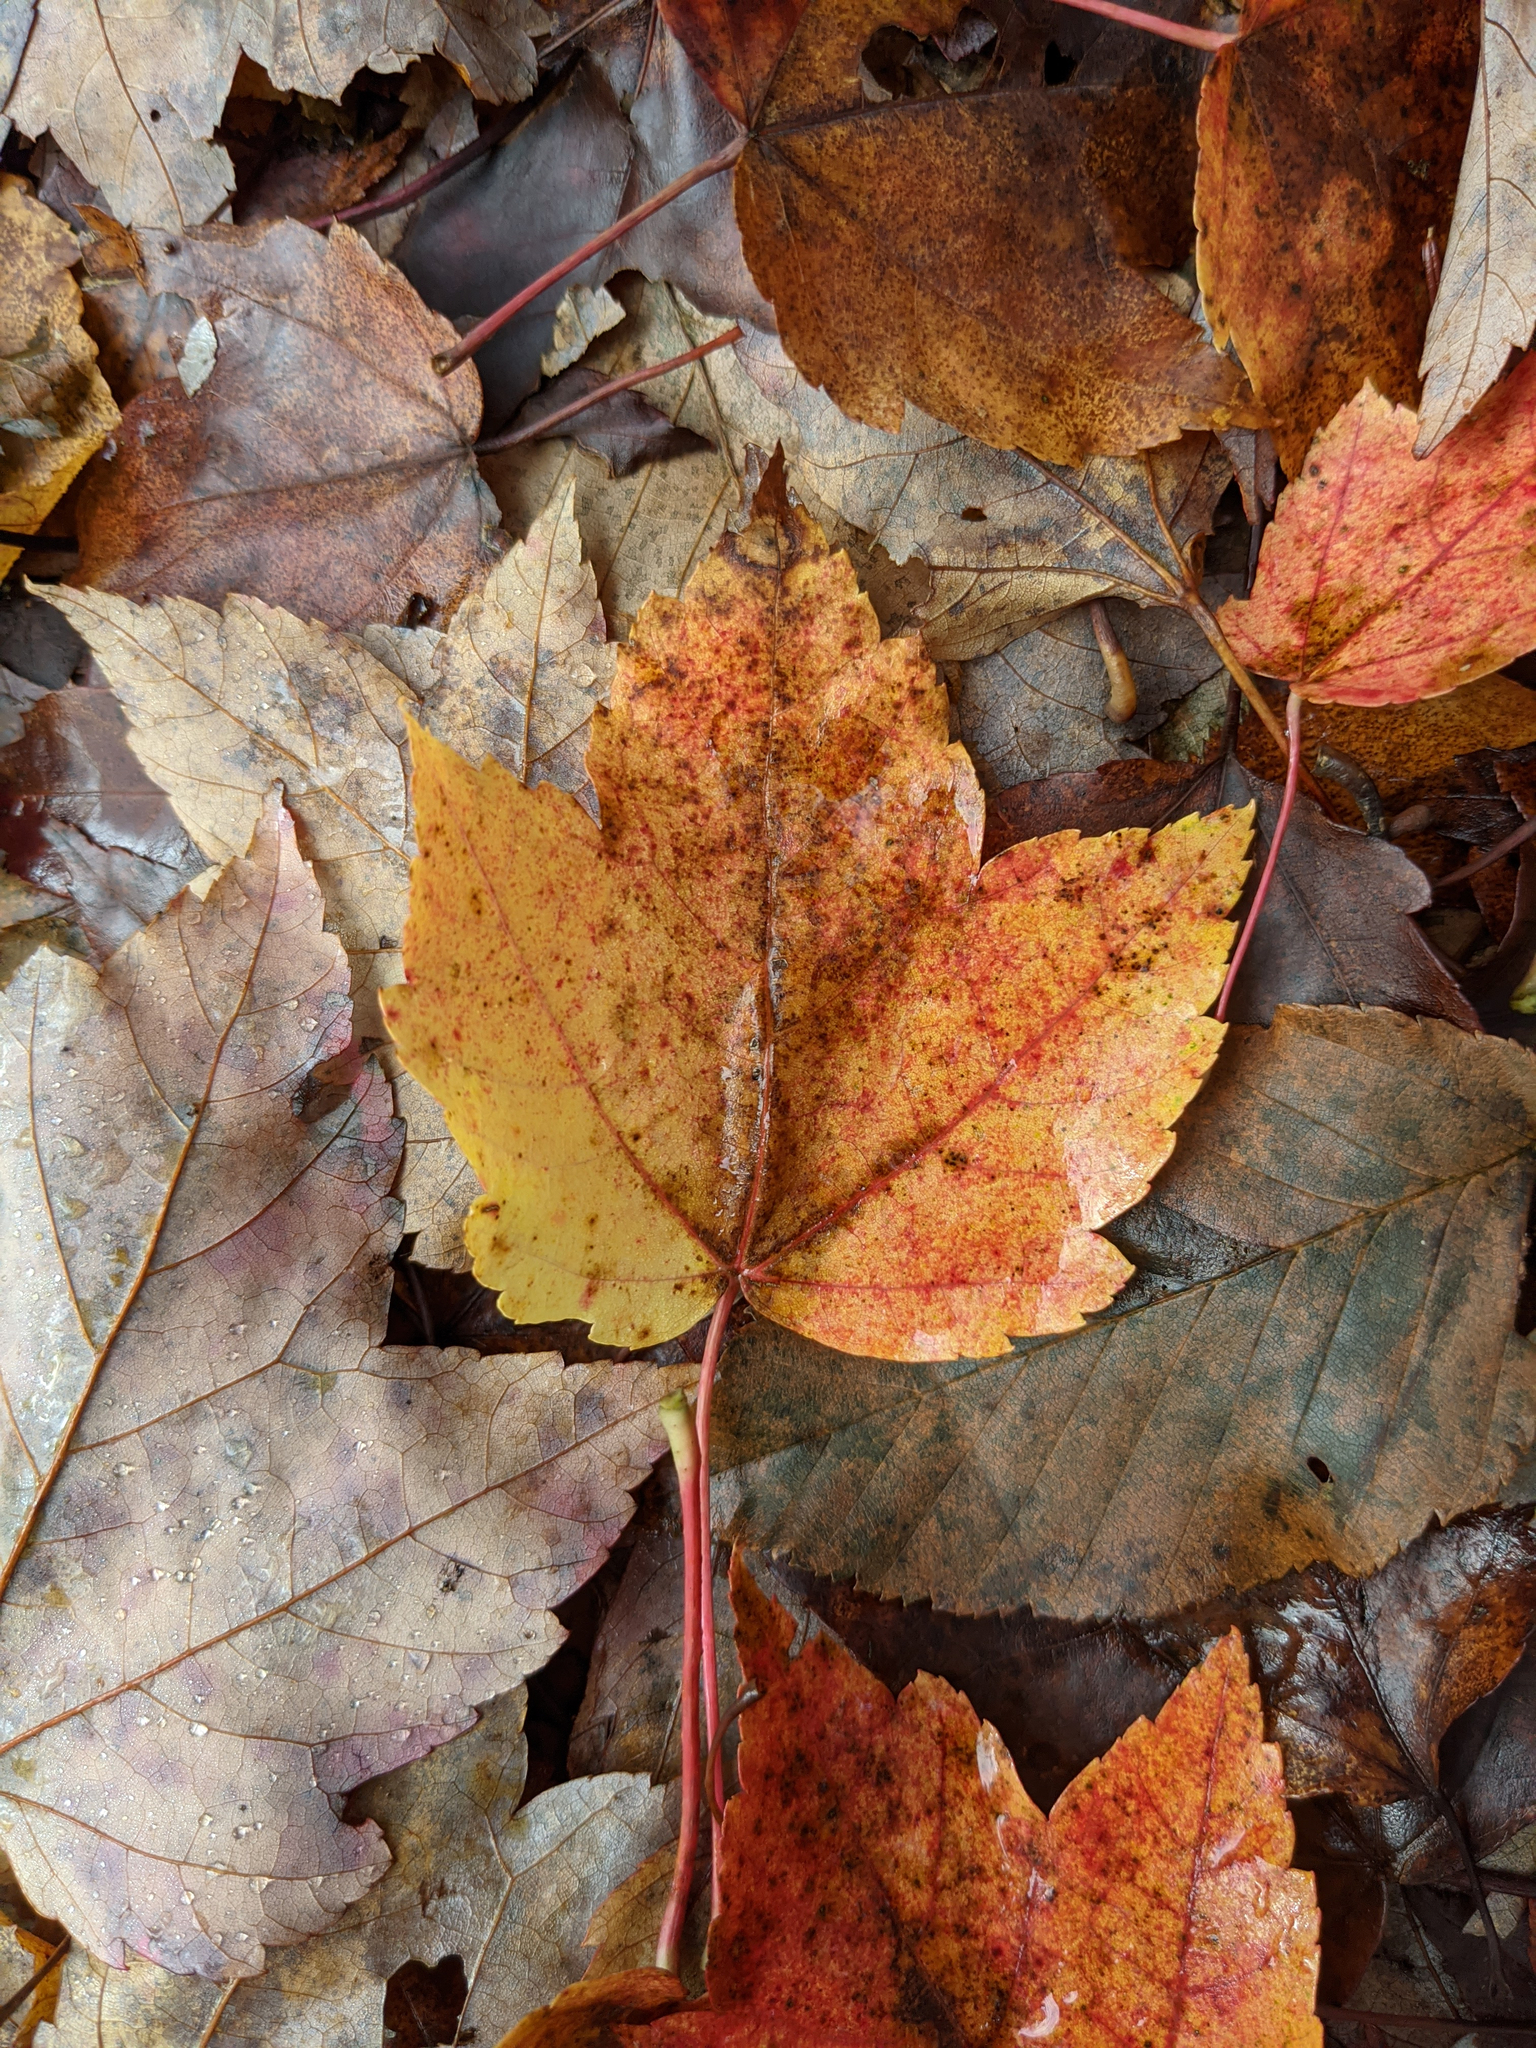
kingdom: Plantae
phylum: Tracheophyta
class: Magnoliopsida
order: Sapindales
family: Sapindaceae
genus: Acer
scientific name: Acer rubrum
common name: Red maple
